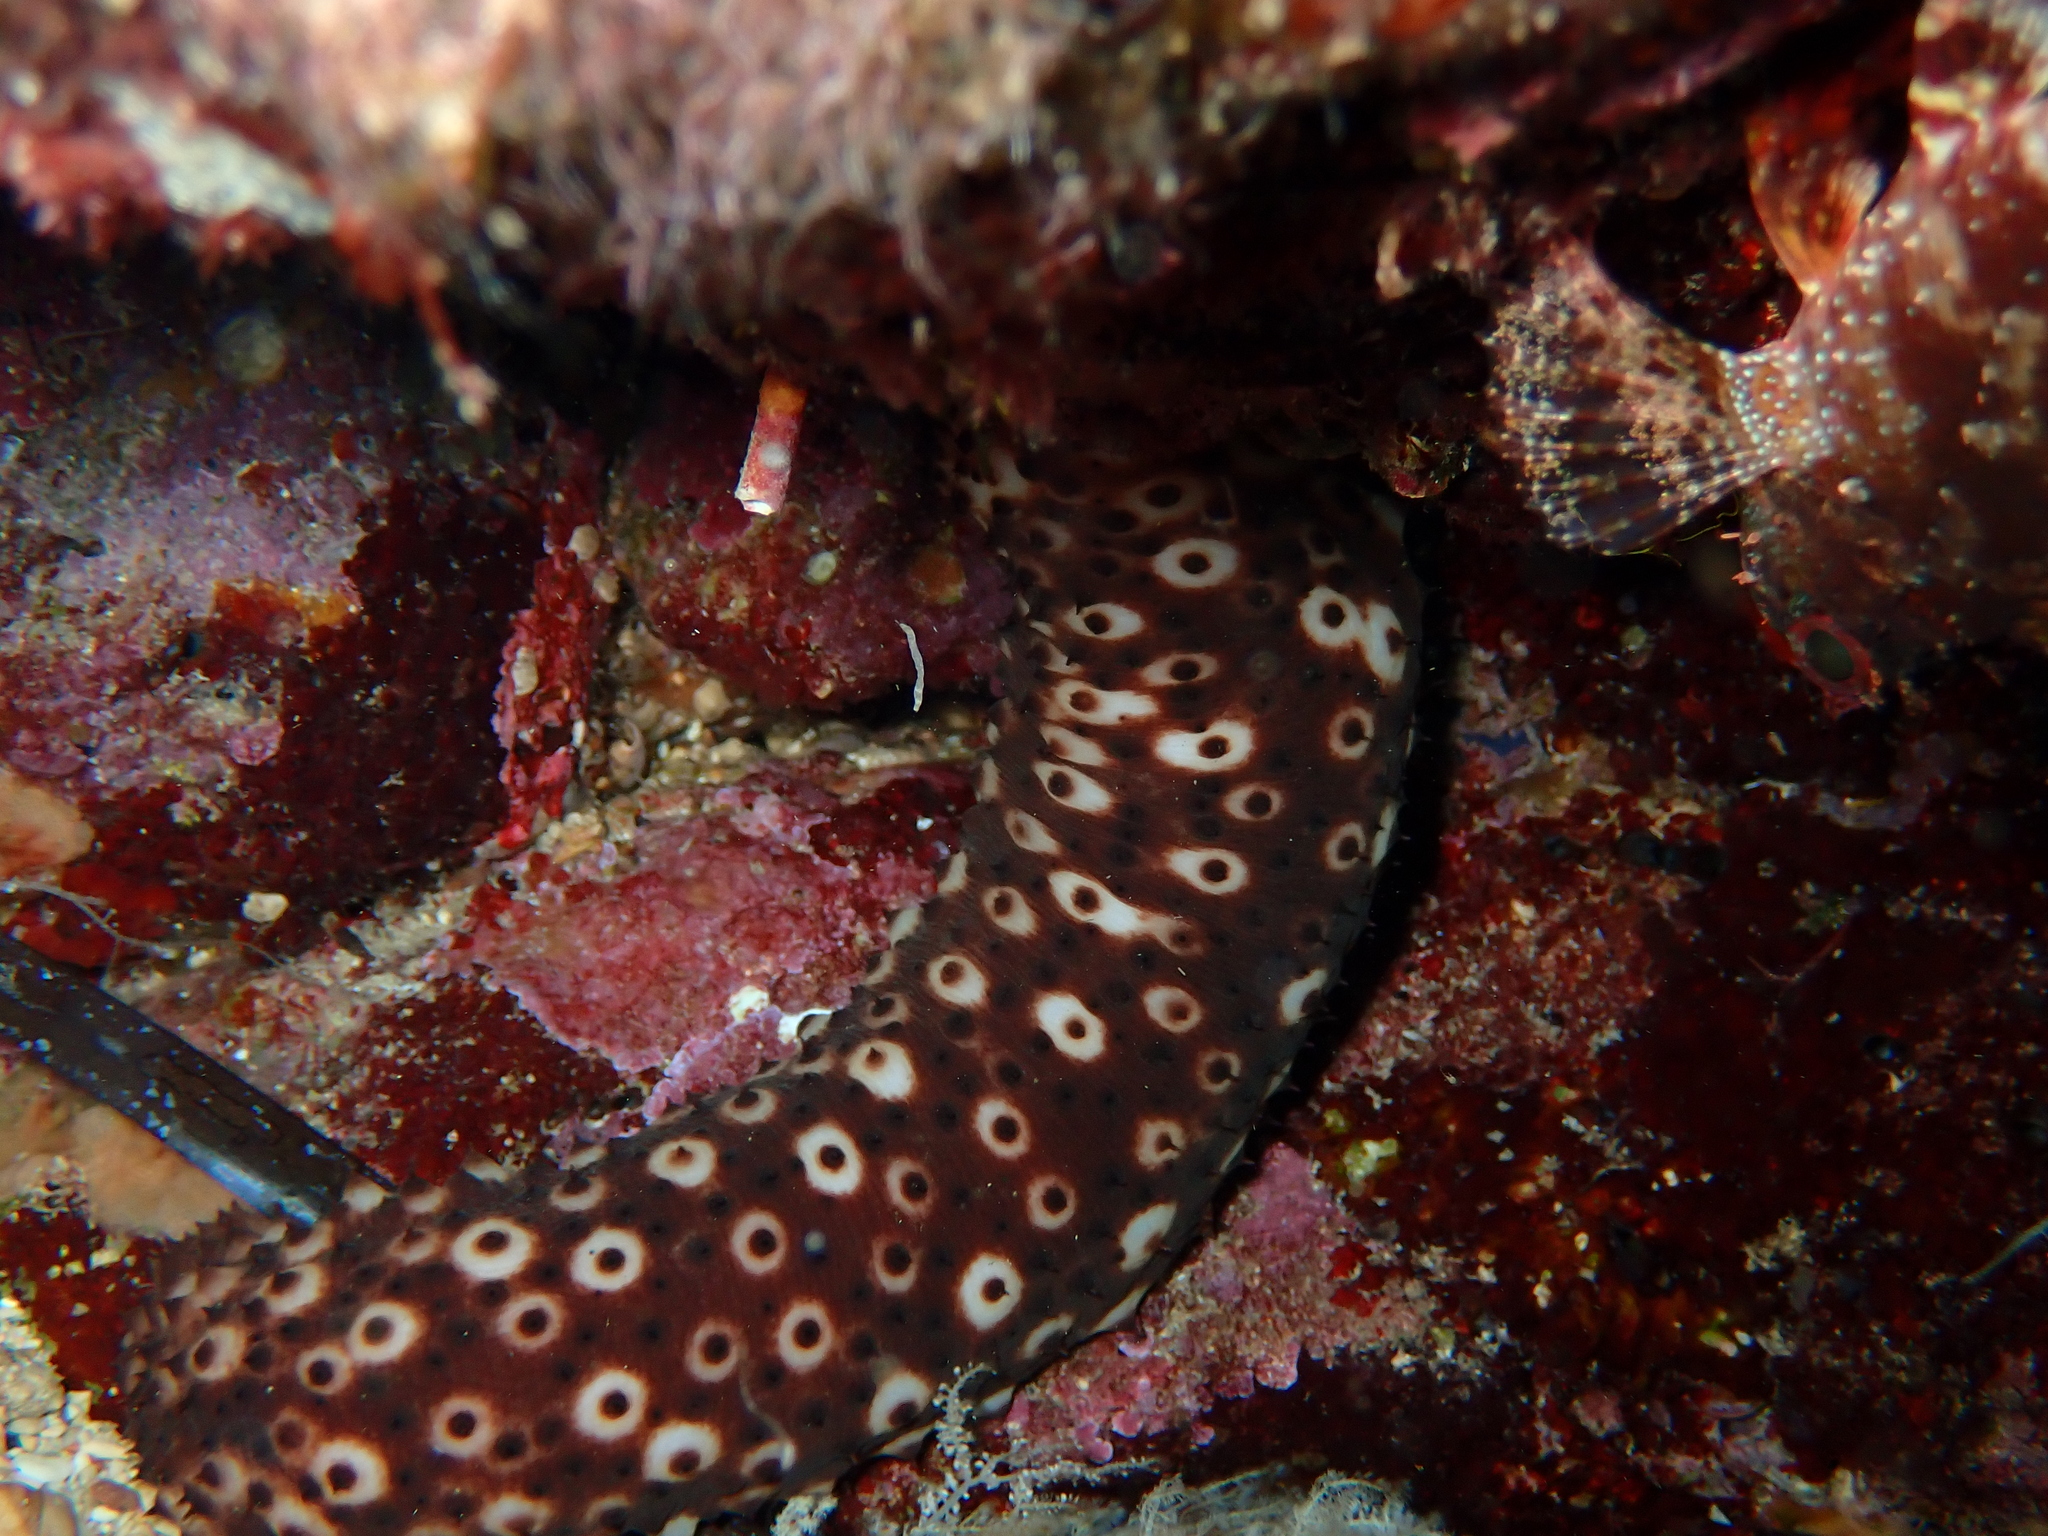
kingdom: Animalia
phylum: Echinodermata
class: Holothuroidea
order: Holothuriida
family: Holothuriidae
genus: Holothuria
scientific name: Holothuria sanctori
